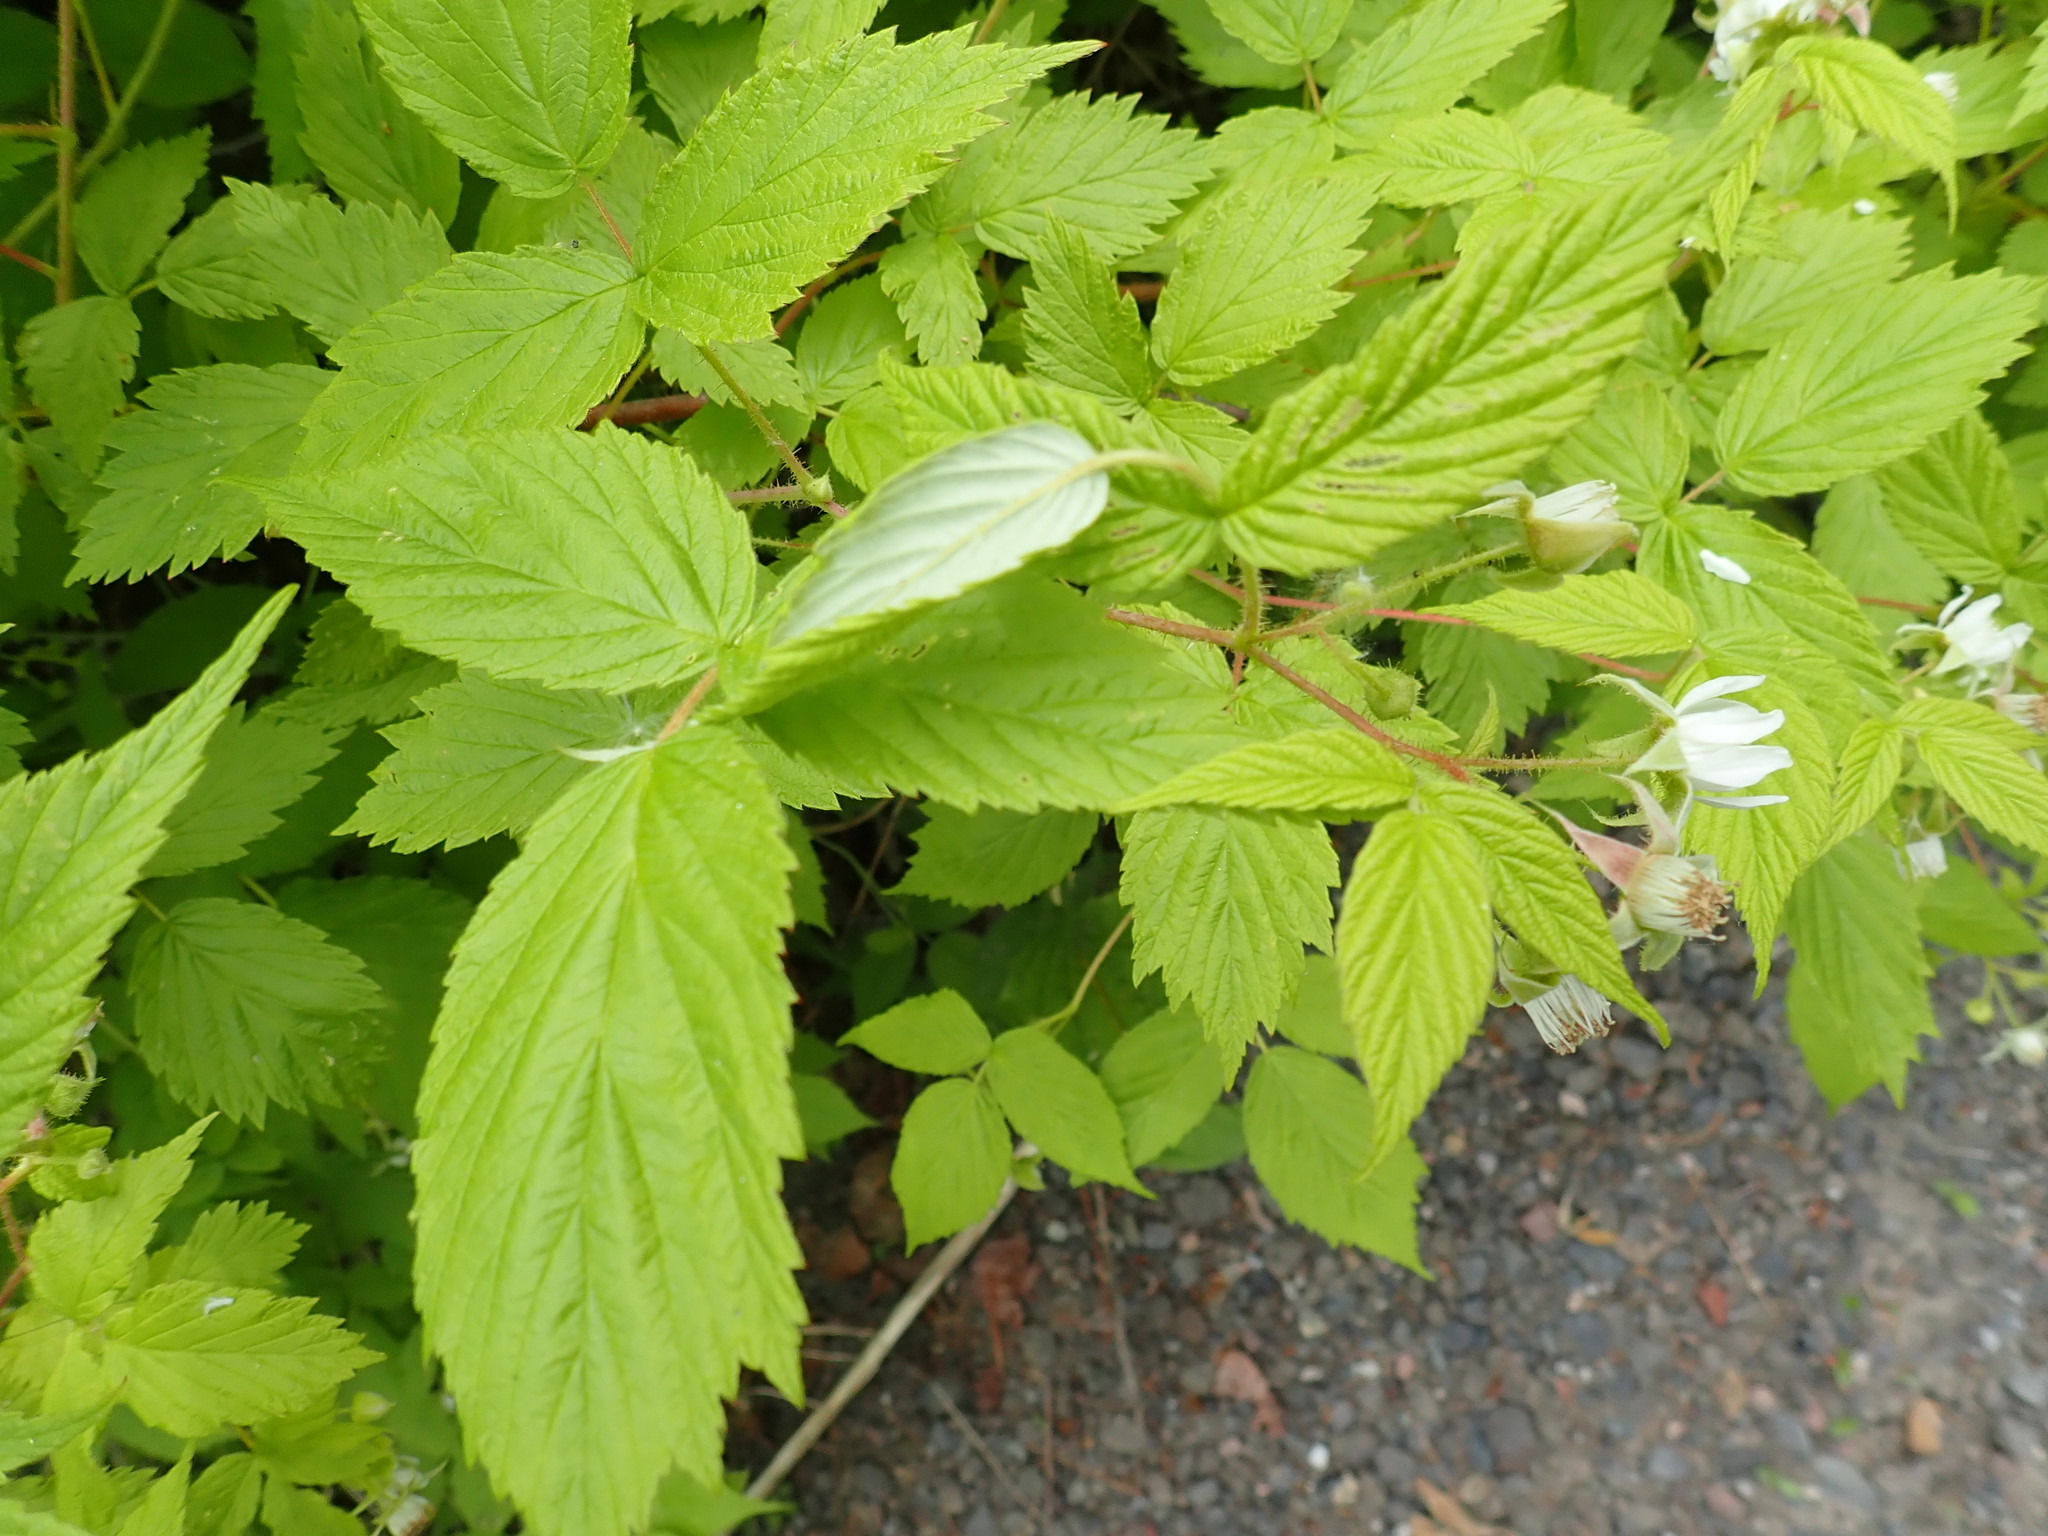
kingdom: Plantae
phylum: Tracheophyta
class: Magnoliopsida
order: Rosales
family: Rosaceae
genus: Rubus
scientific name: Rubus idaeus
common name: Raspberry
